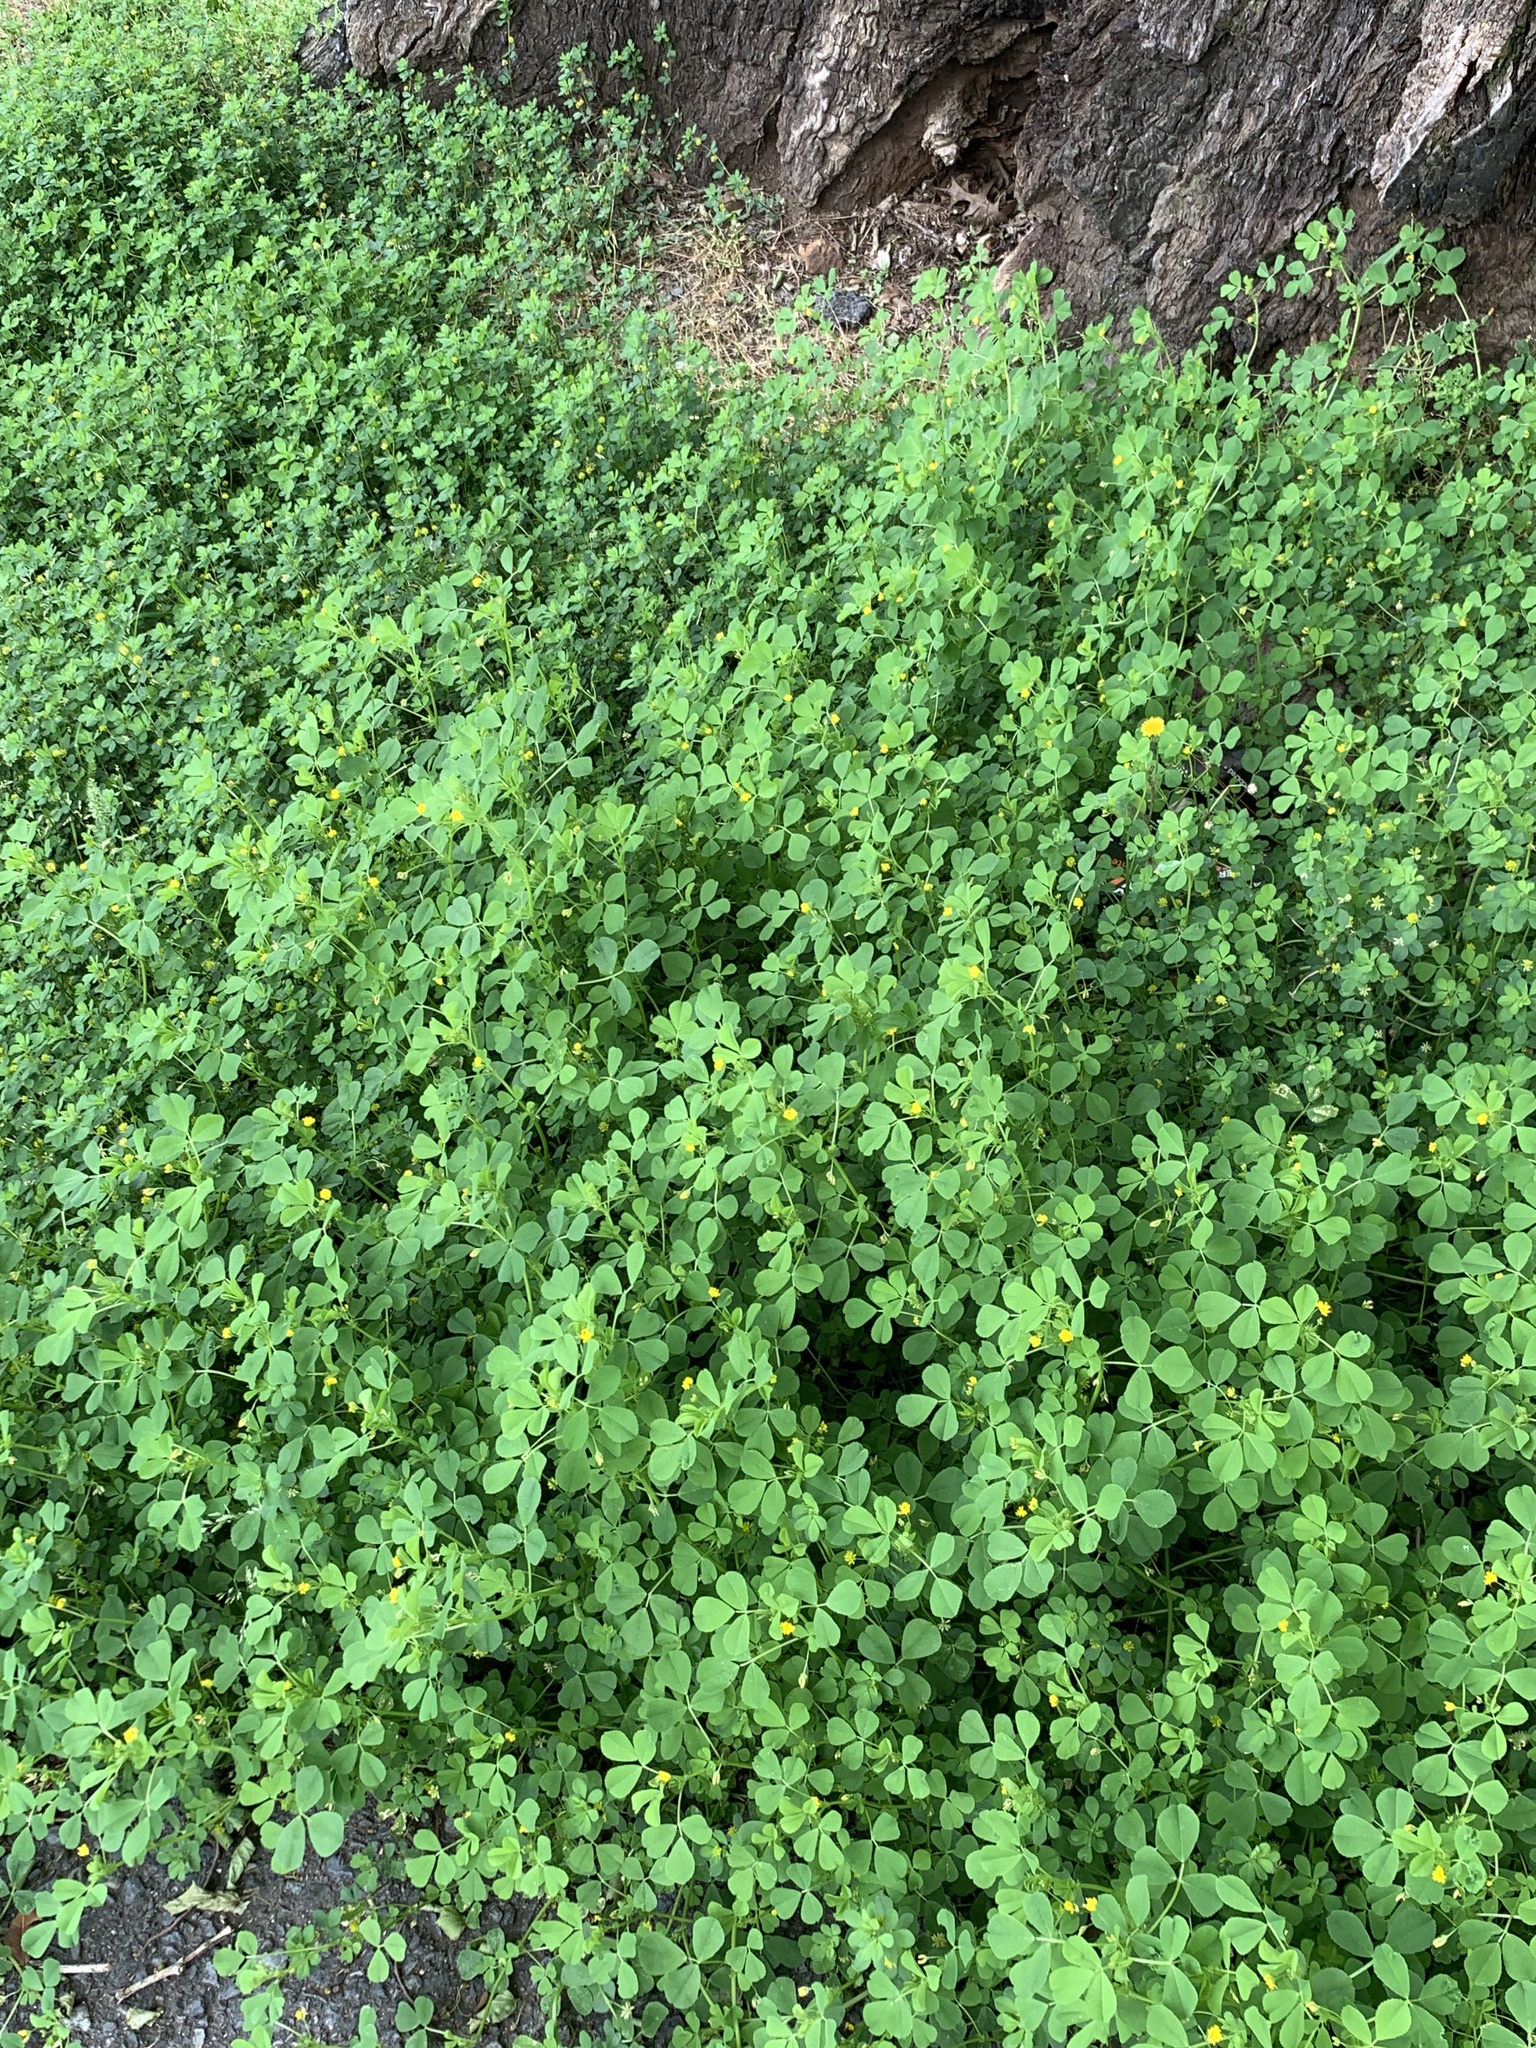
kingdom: Plantae
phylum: Tracheophyta
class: Magnoliopsida
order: Fabales
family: Fabaceae
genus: Medicago
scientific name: Medicago polymorpha
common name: Burclover
